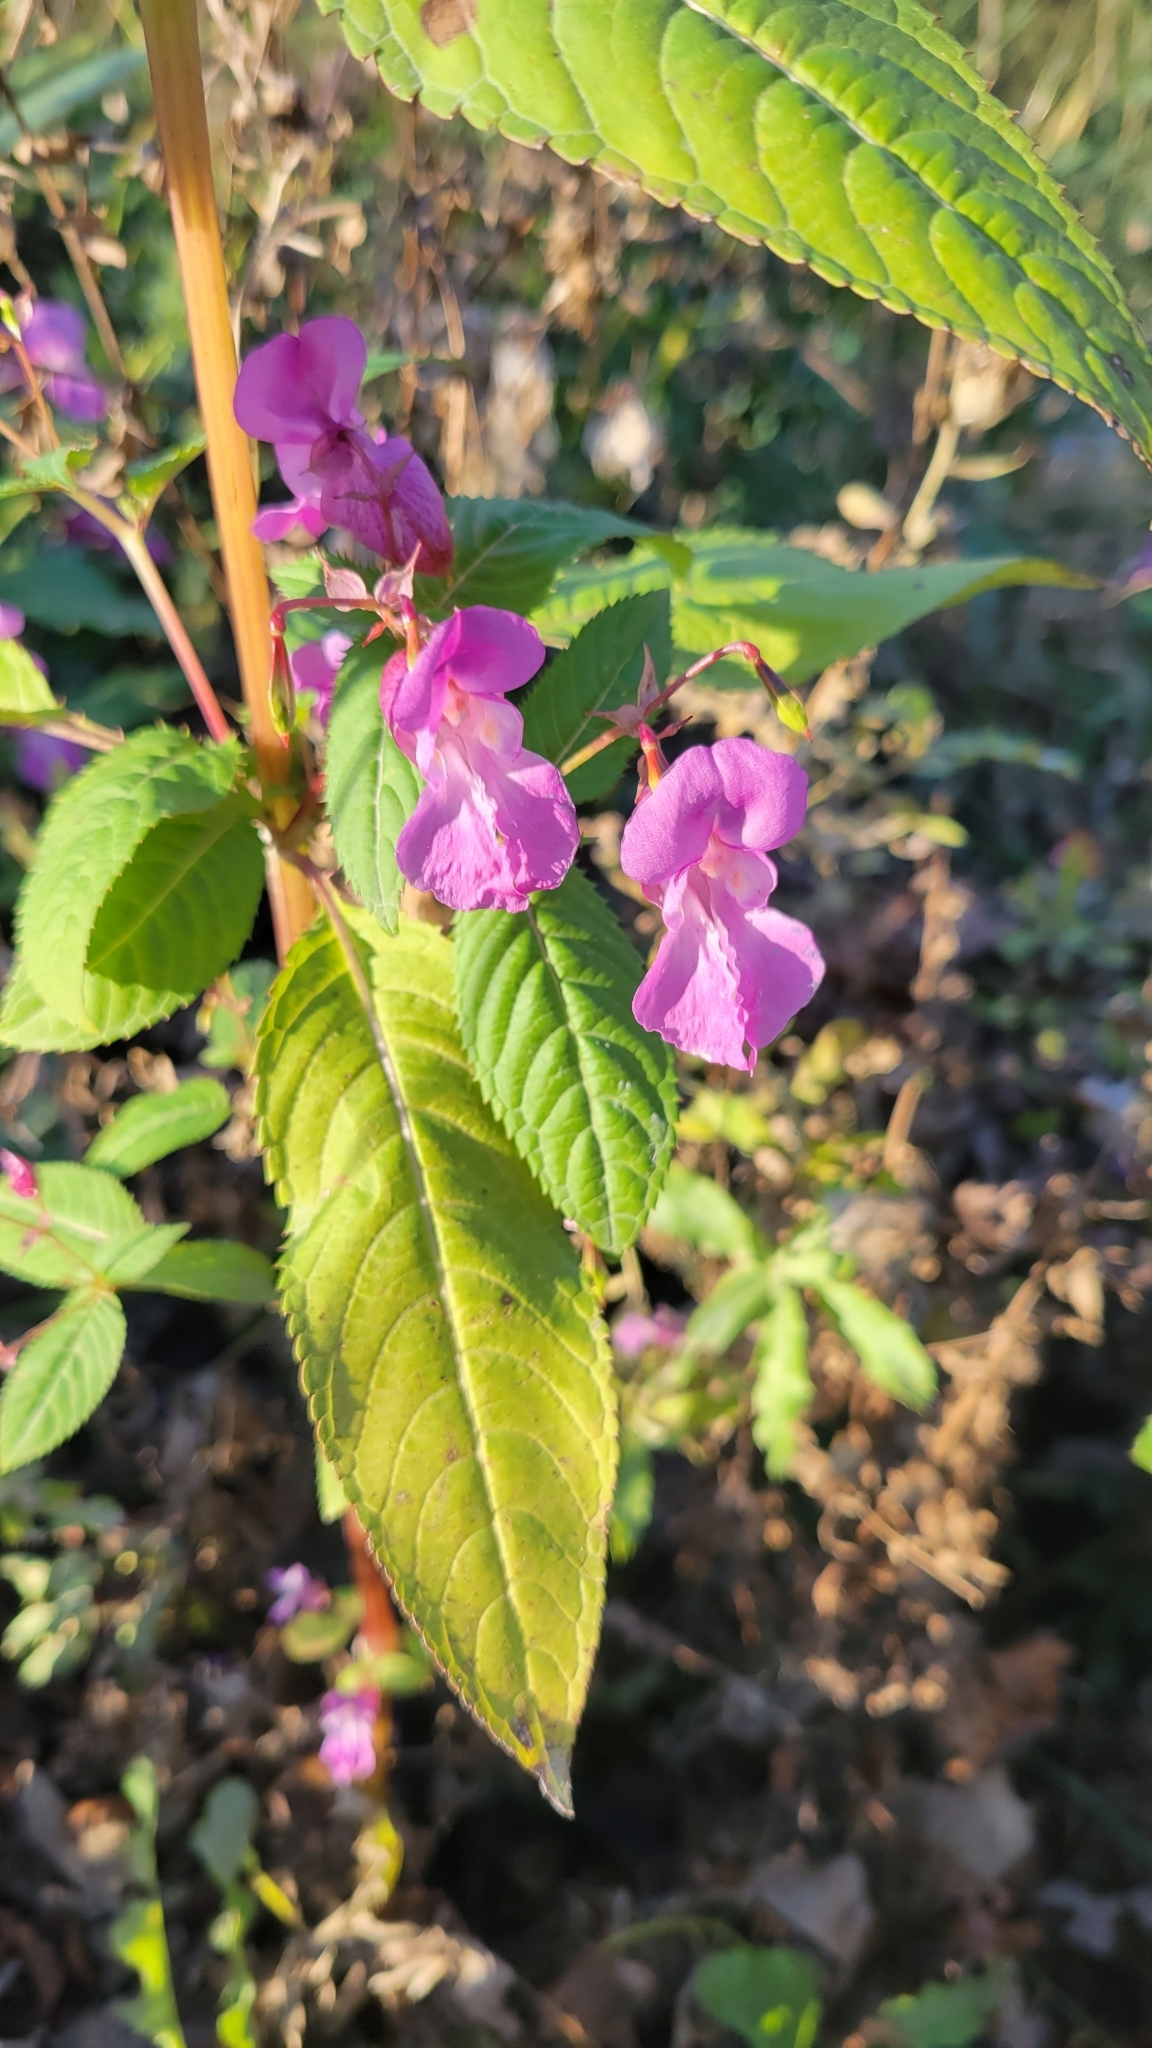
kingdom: Plantae
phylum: Tracheophyta
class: Magnoliopsida
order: Ericales
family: Balsaminaceae
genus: Impatiens
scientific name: Impatiens glandulifera
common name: Himalayan balsam
